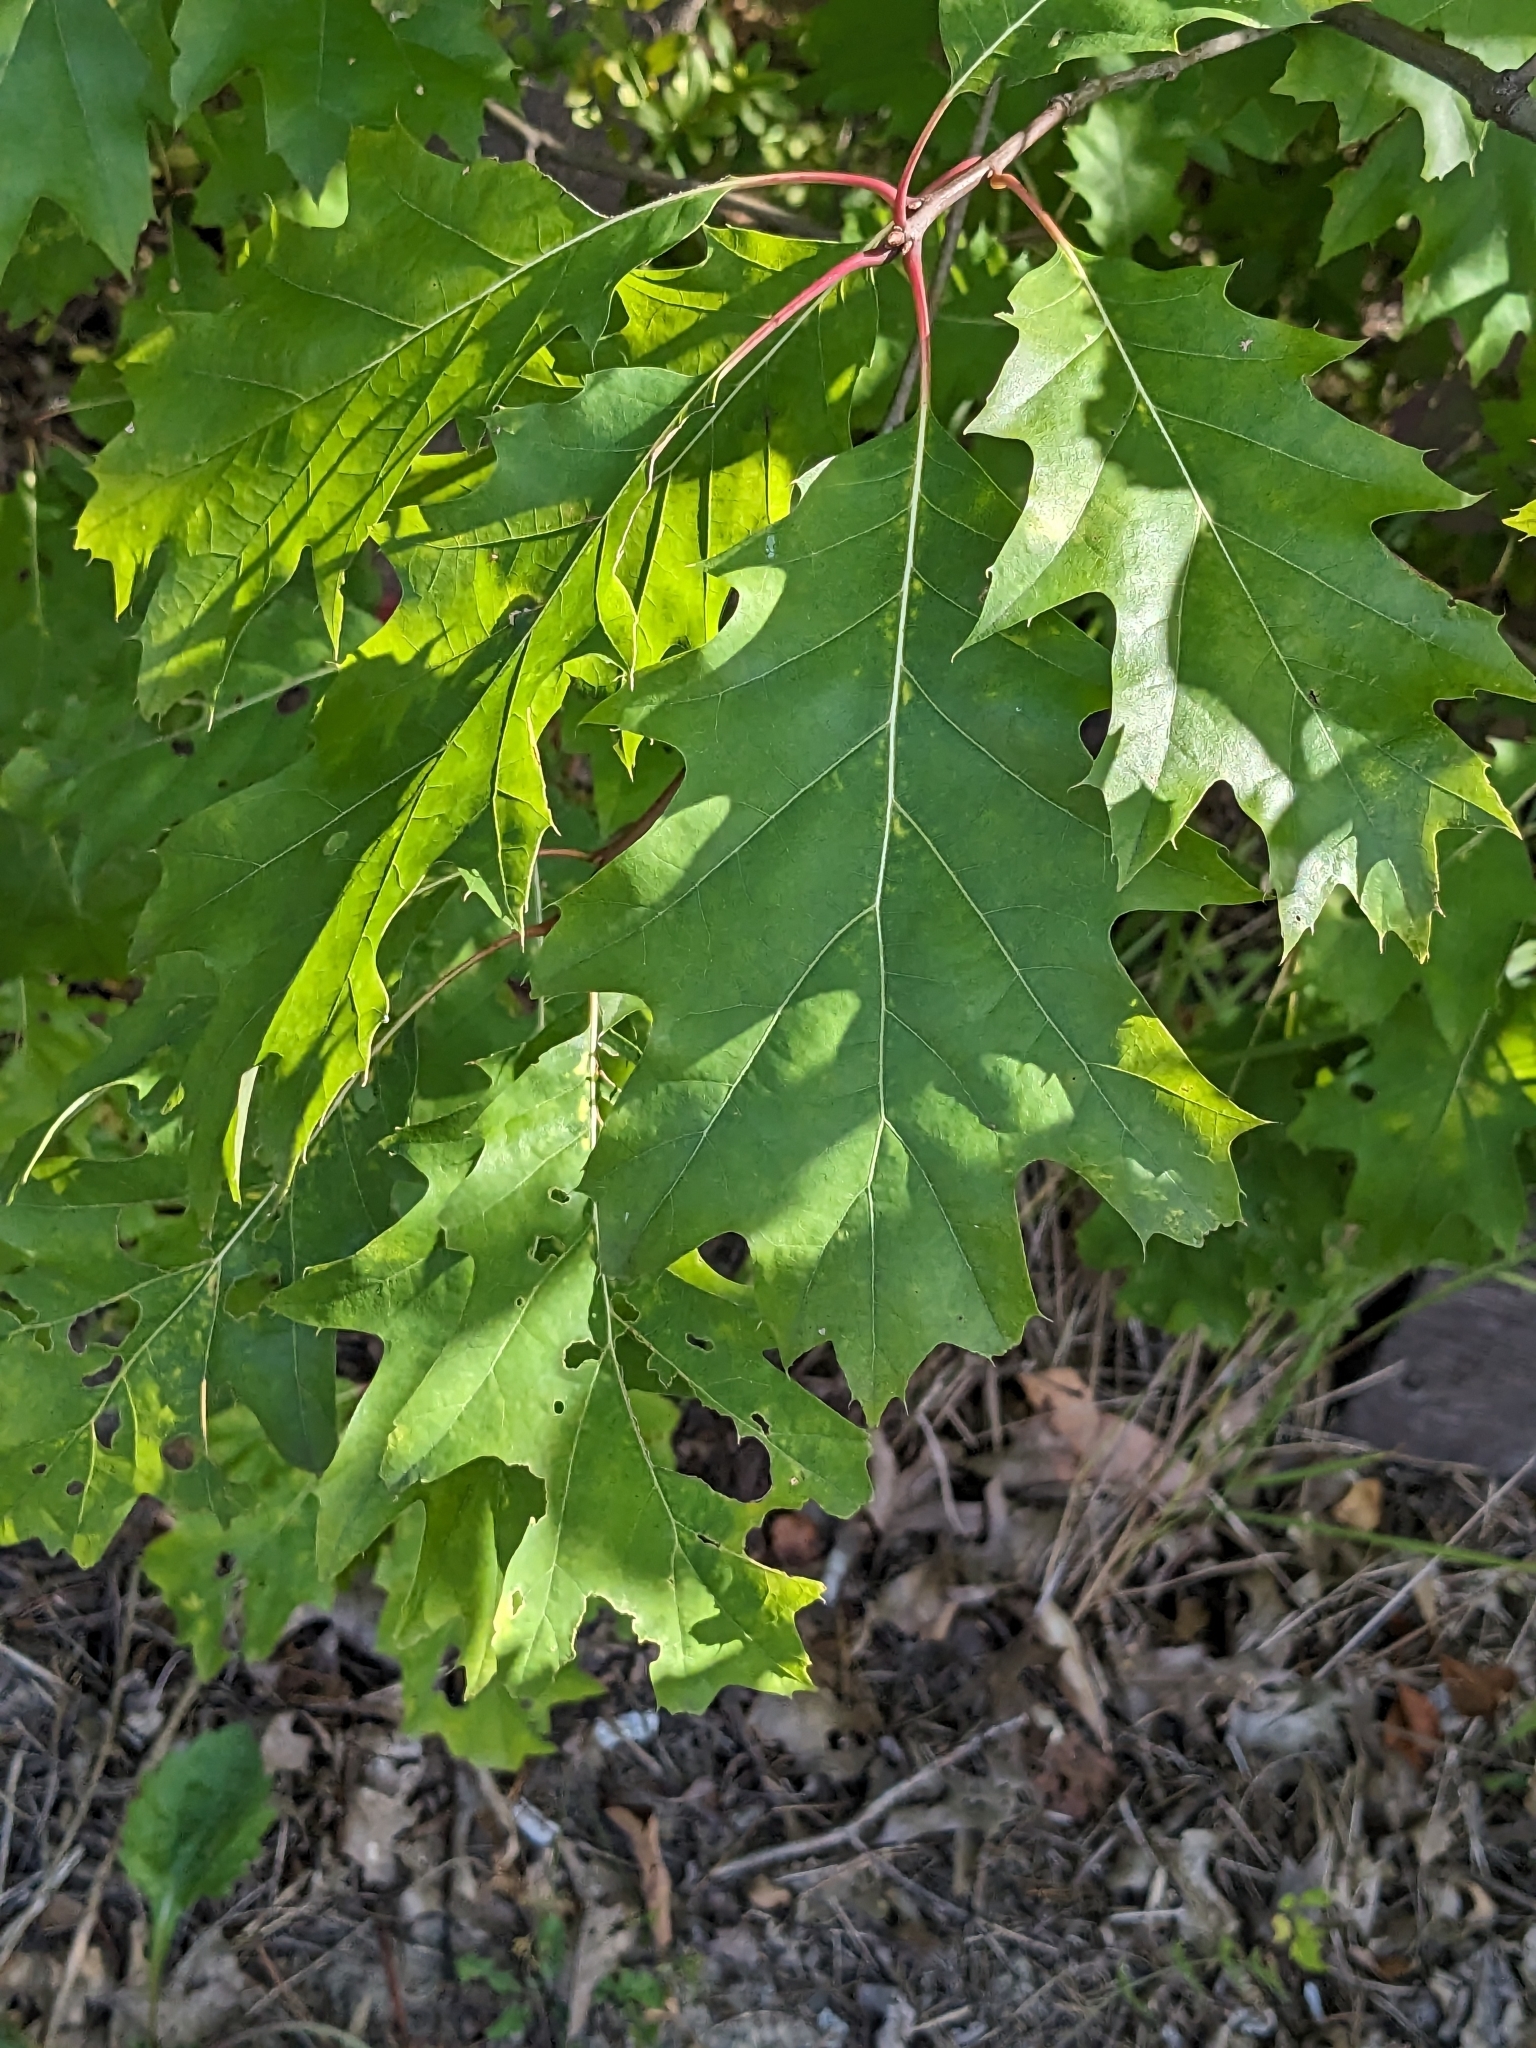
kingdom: Plantae
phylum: Tracheophyta
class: Magnoliopsida
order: Fagales
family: Fagaceae
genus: Quercus
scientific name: Quercus rubra
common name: Red oak
